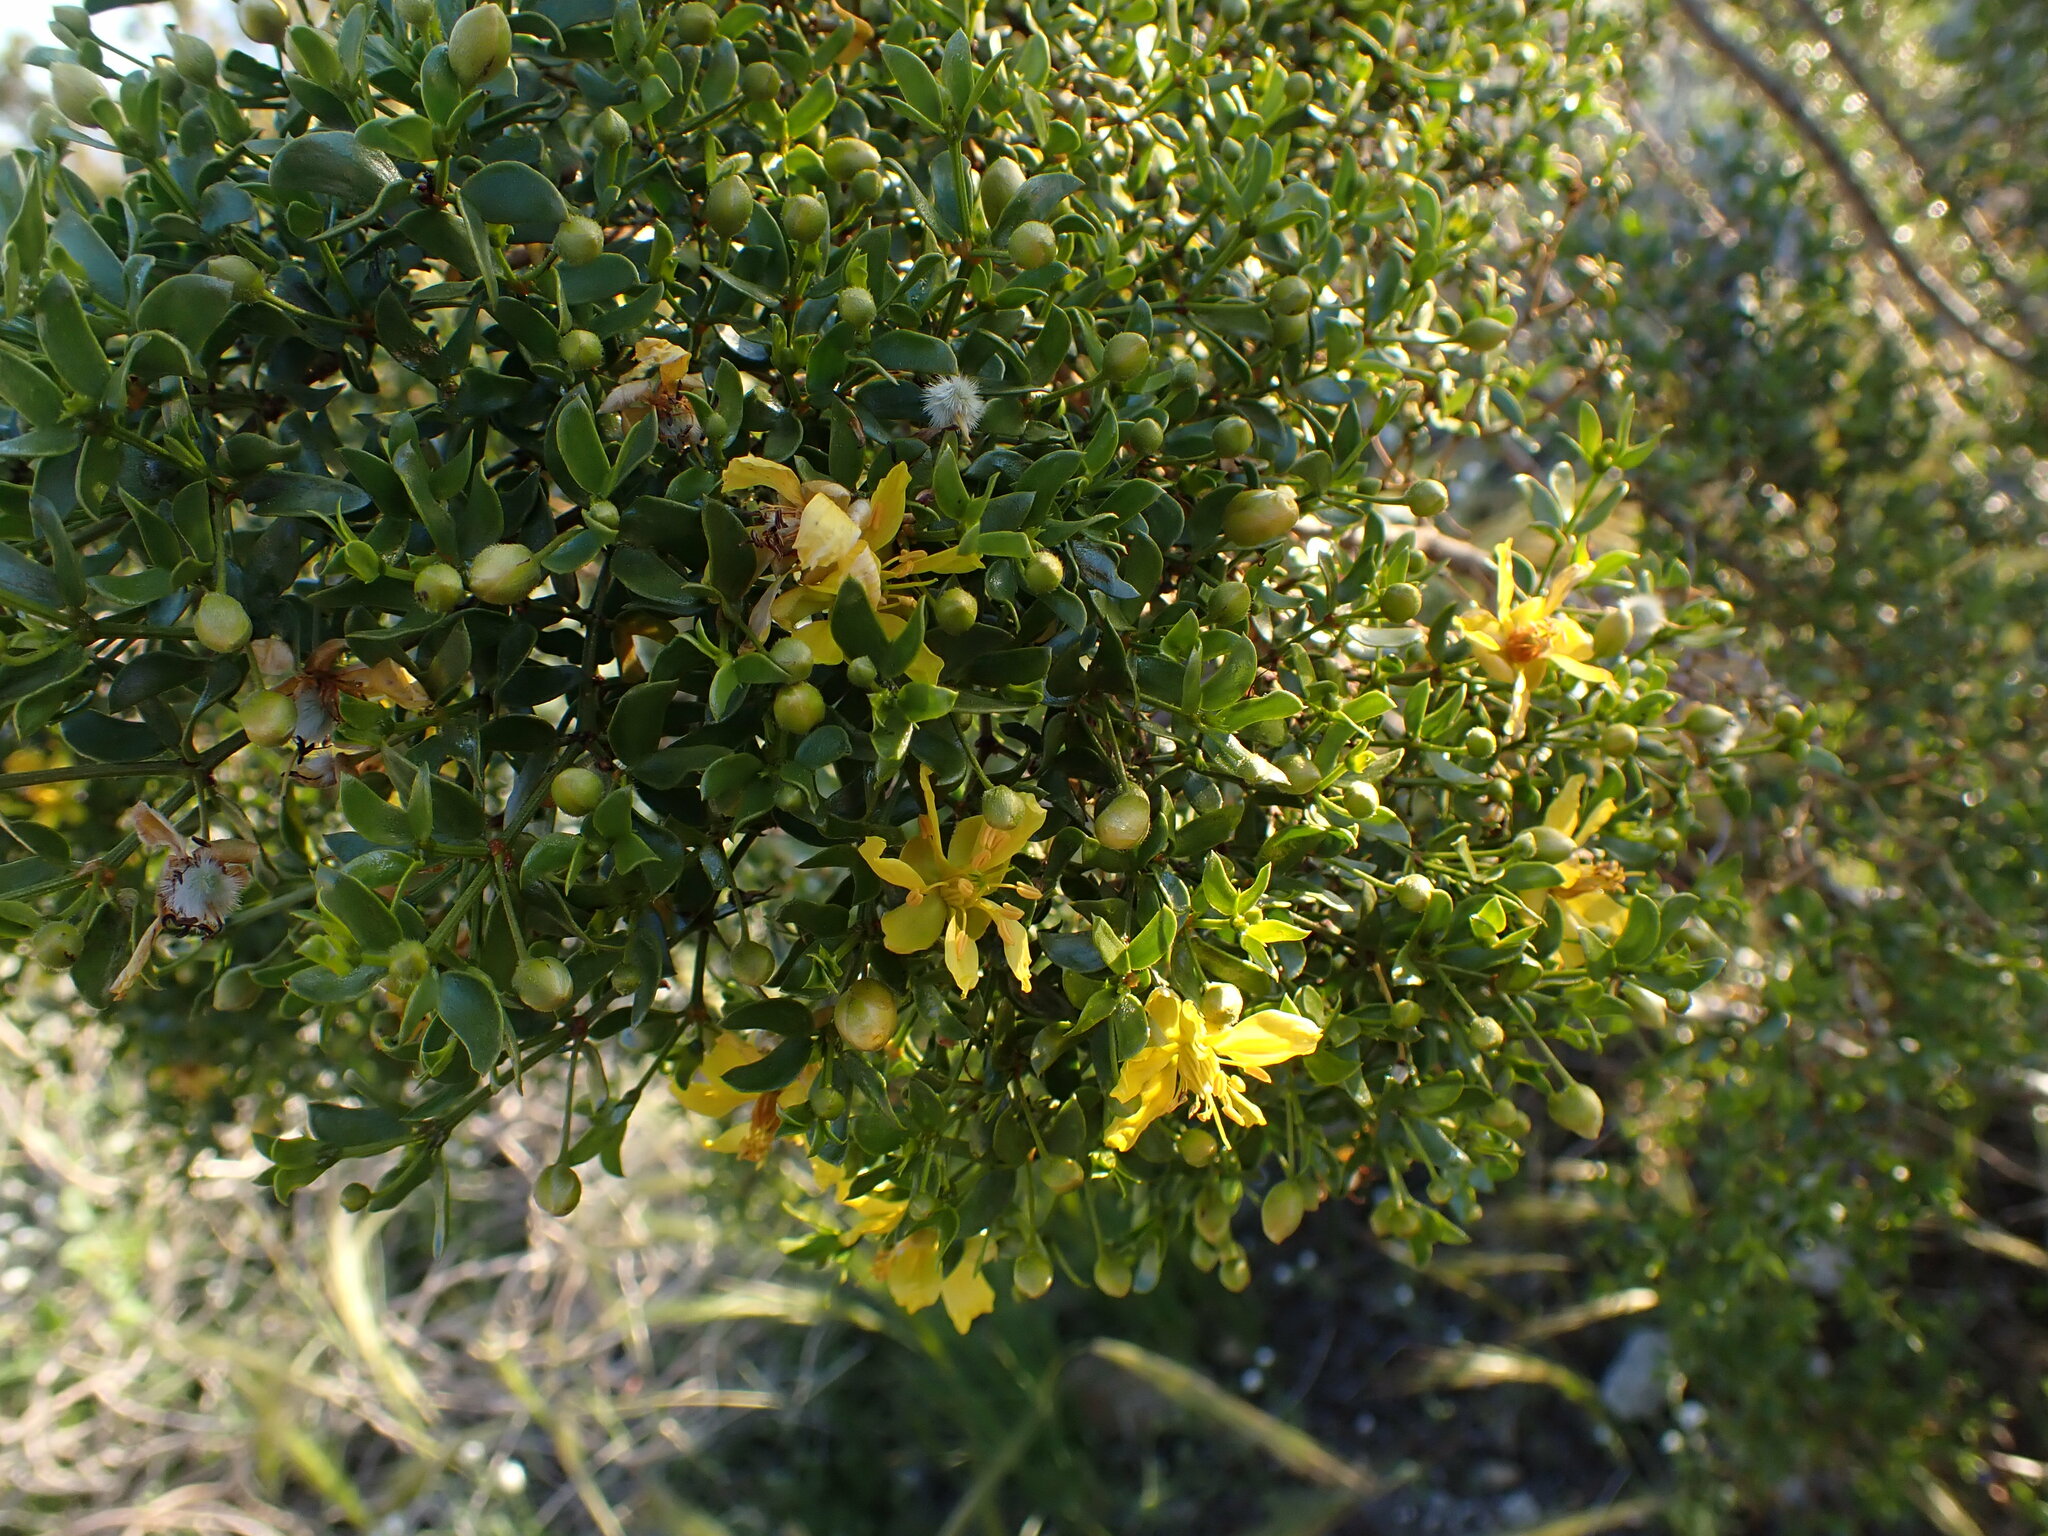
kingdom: Plantae
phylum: Tracheophyta
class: Magnoliopsida
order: Zygophyllales
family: Zygophyllaceae
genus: Larrea
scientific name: Larrea tridentata
